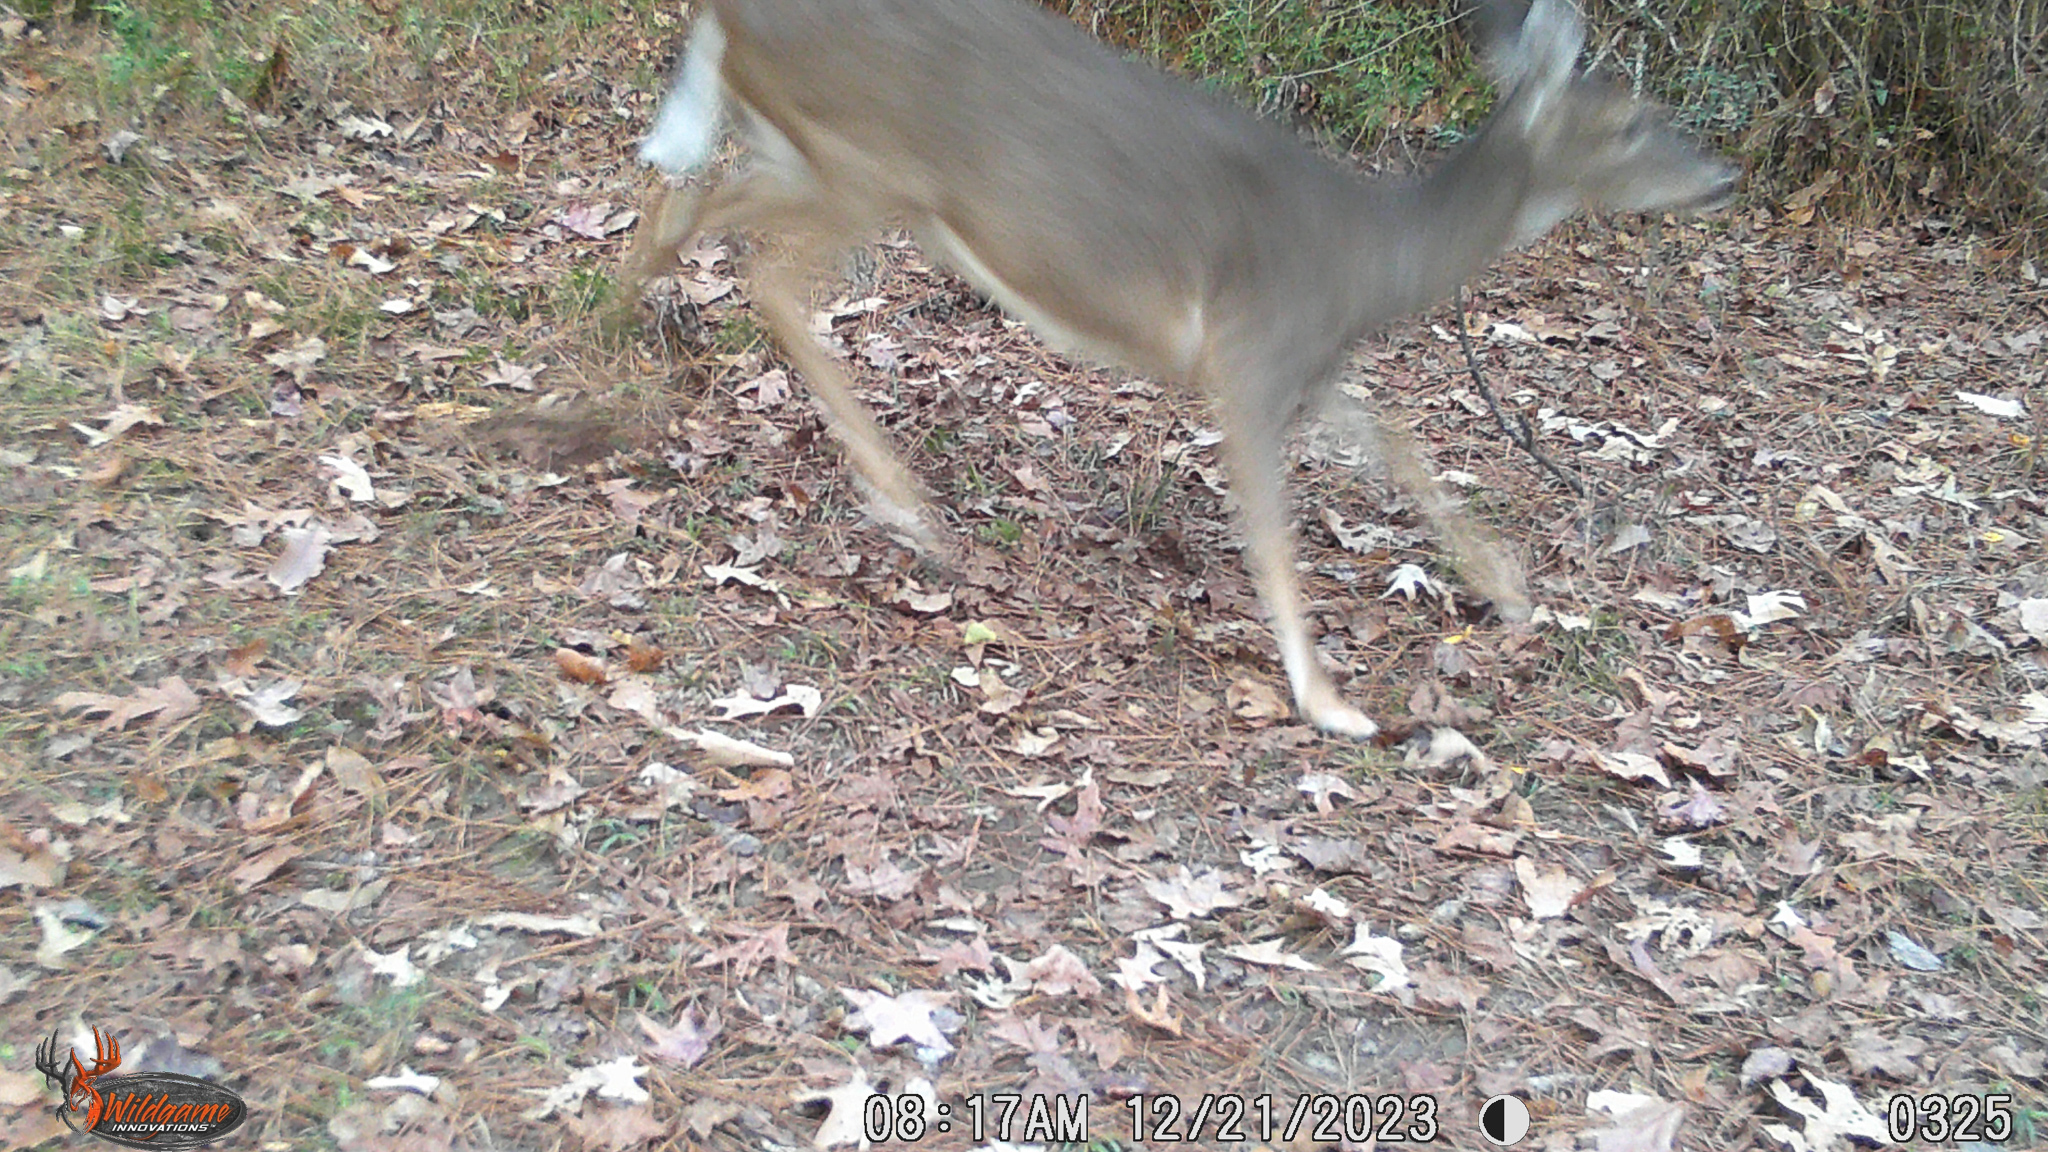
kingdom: Animalia
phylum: Chordata
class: Mammalia
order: Artiodactyla
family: Cervidae
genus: Odocoileus
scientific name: Odocoileus virginianus
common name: White-tailed deer
